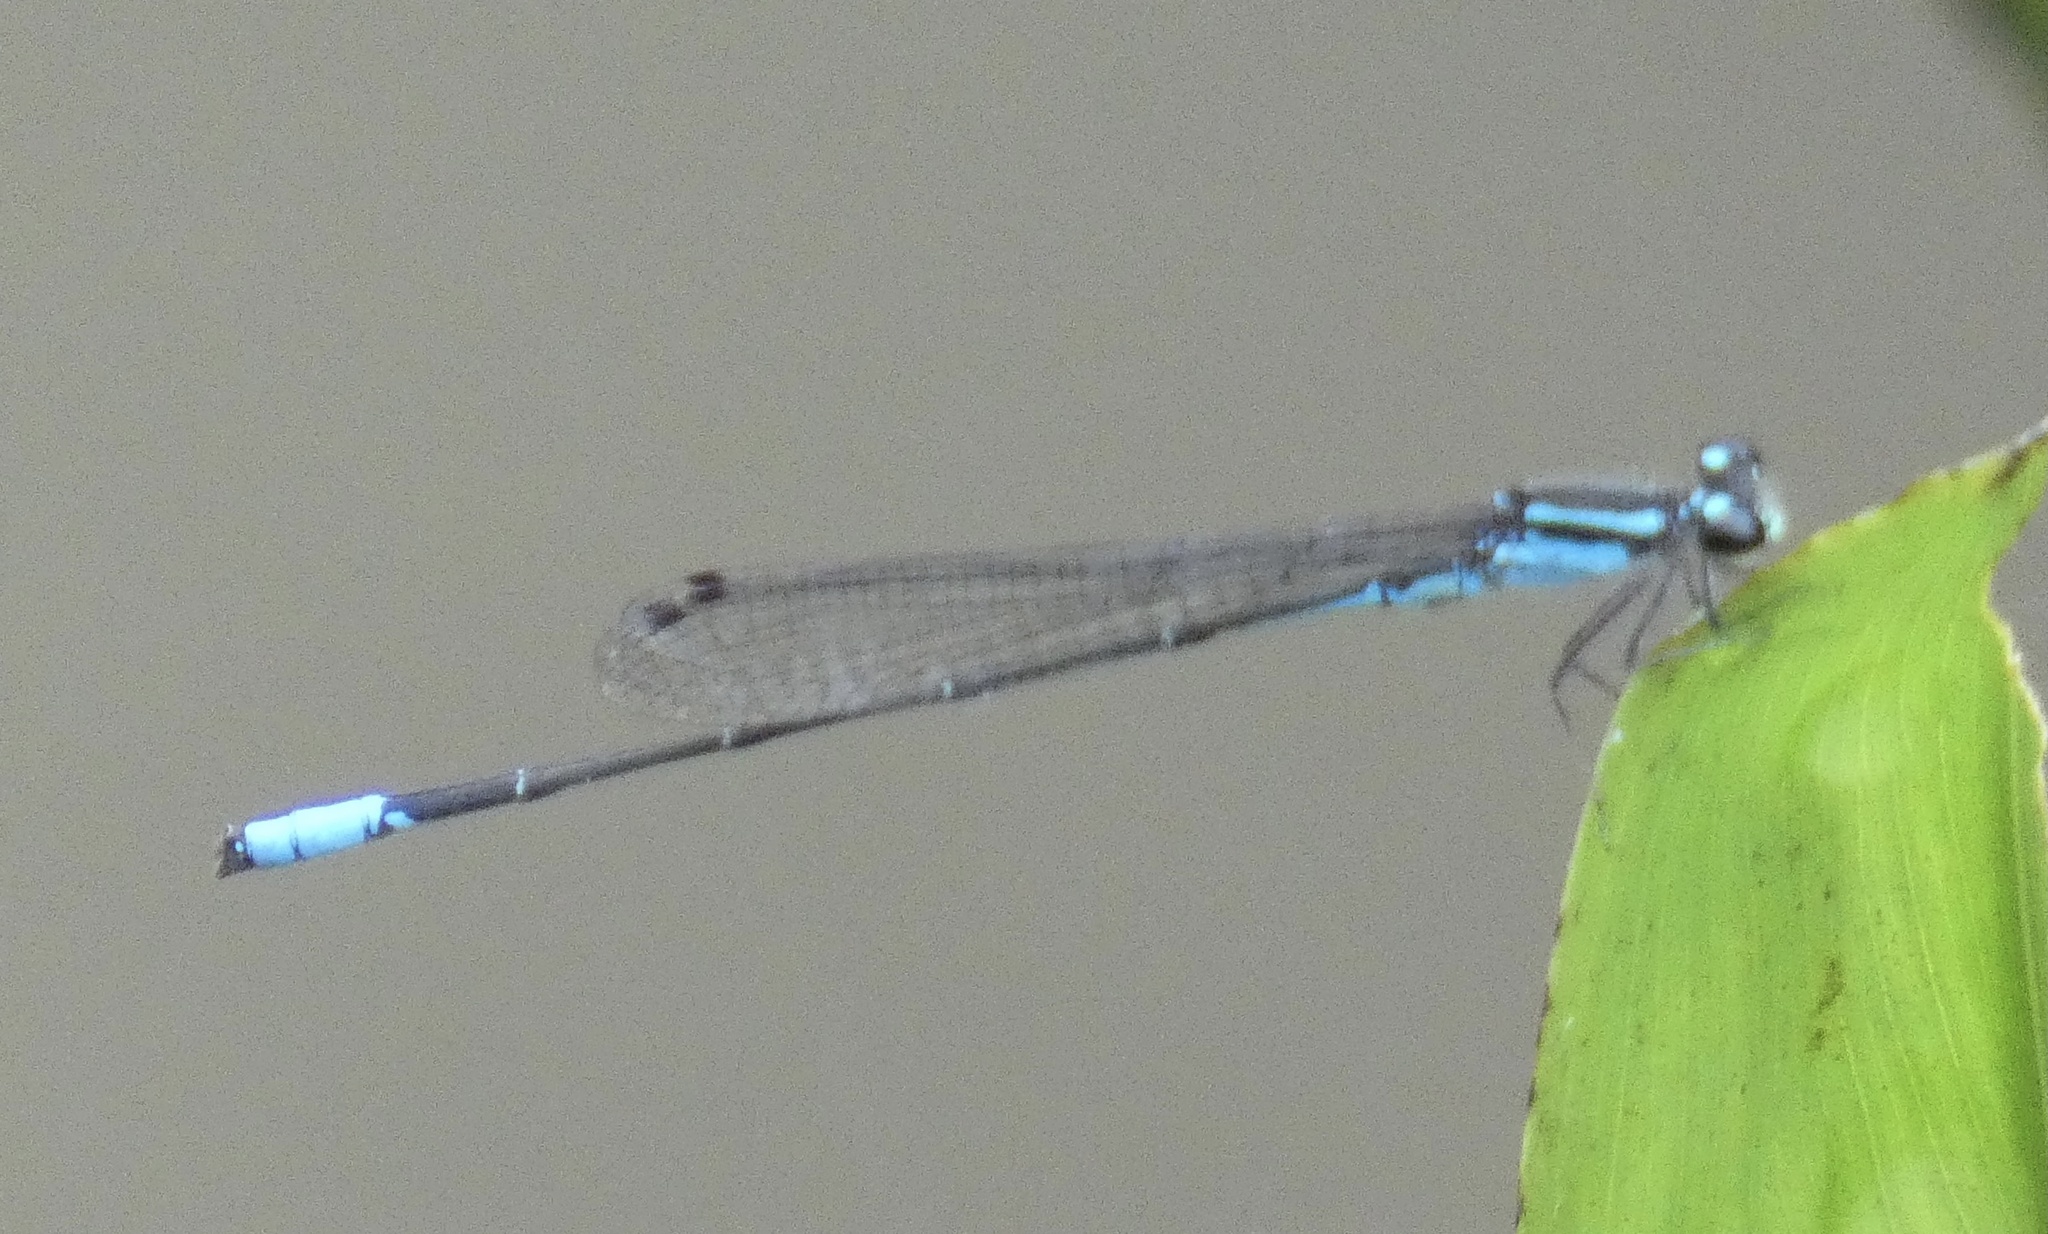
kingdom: Animalia
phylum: Arthropoda
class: Insecta
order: Odonata
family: Coenagrionidae
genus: Acanthagrion
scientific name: Acanthagrion gracile
